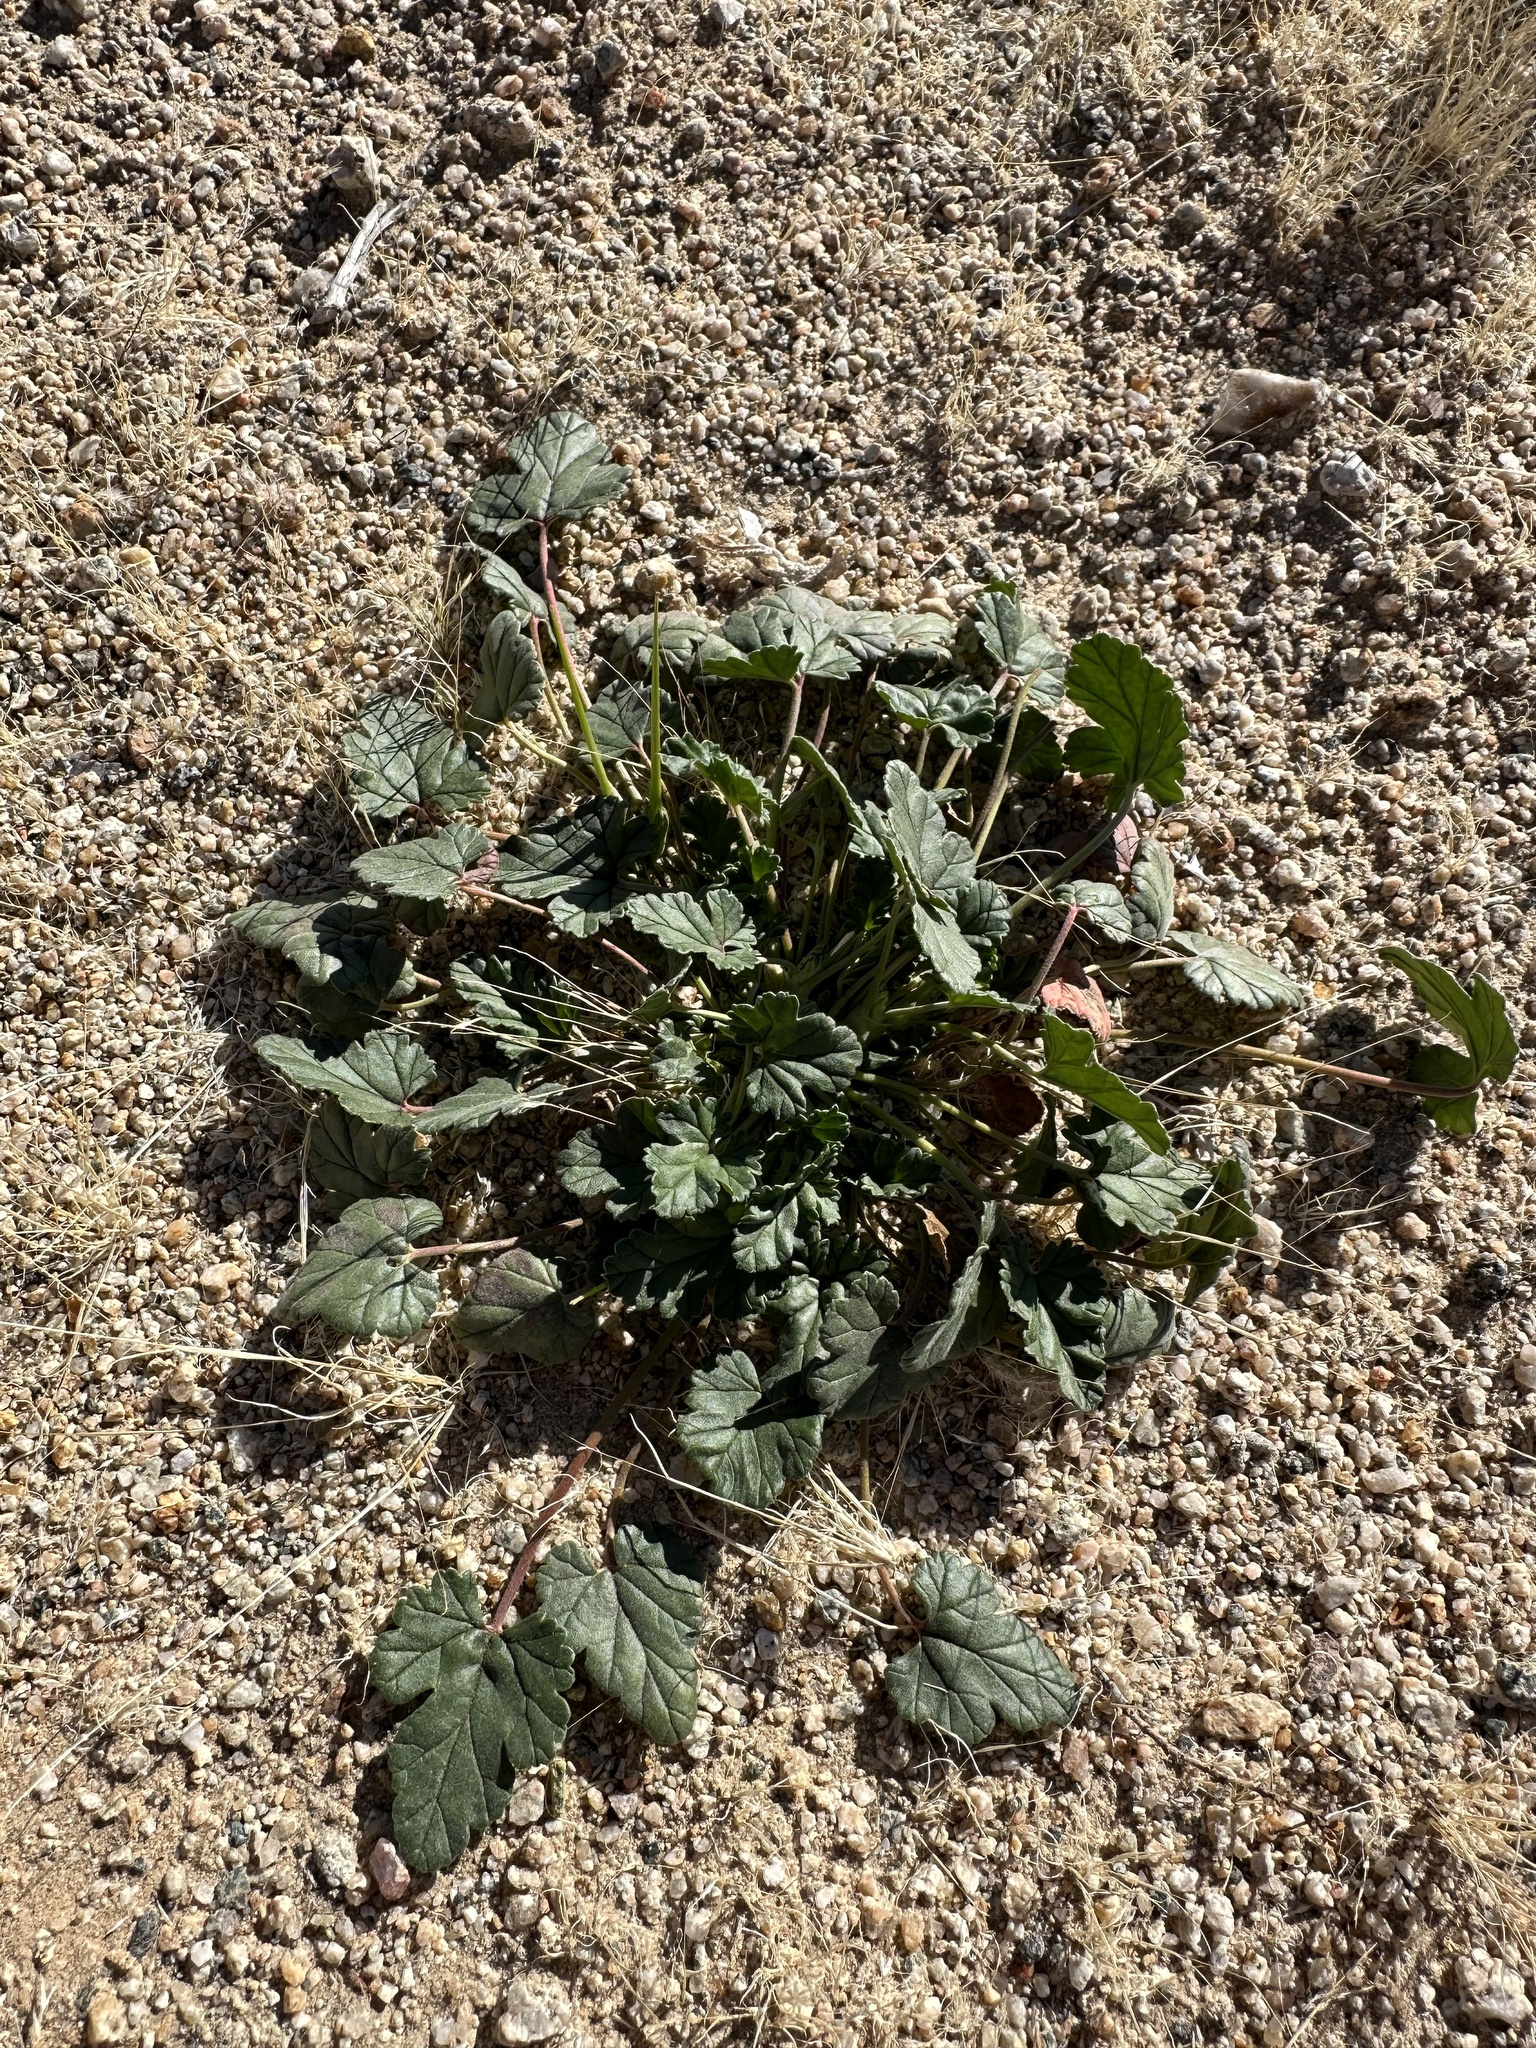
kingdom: Plantae
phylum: Tracheophyta
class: Magnoliopsida
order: Geraniales
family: Geraniaceae
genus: Erodium
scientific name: Erodium texanum
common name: Texas stork's-bill
